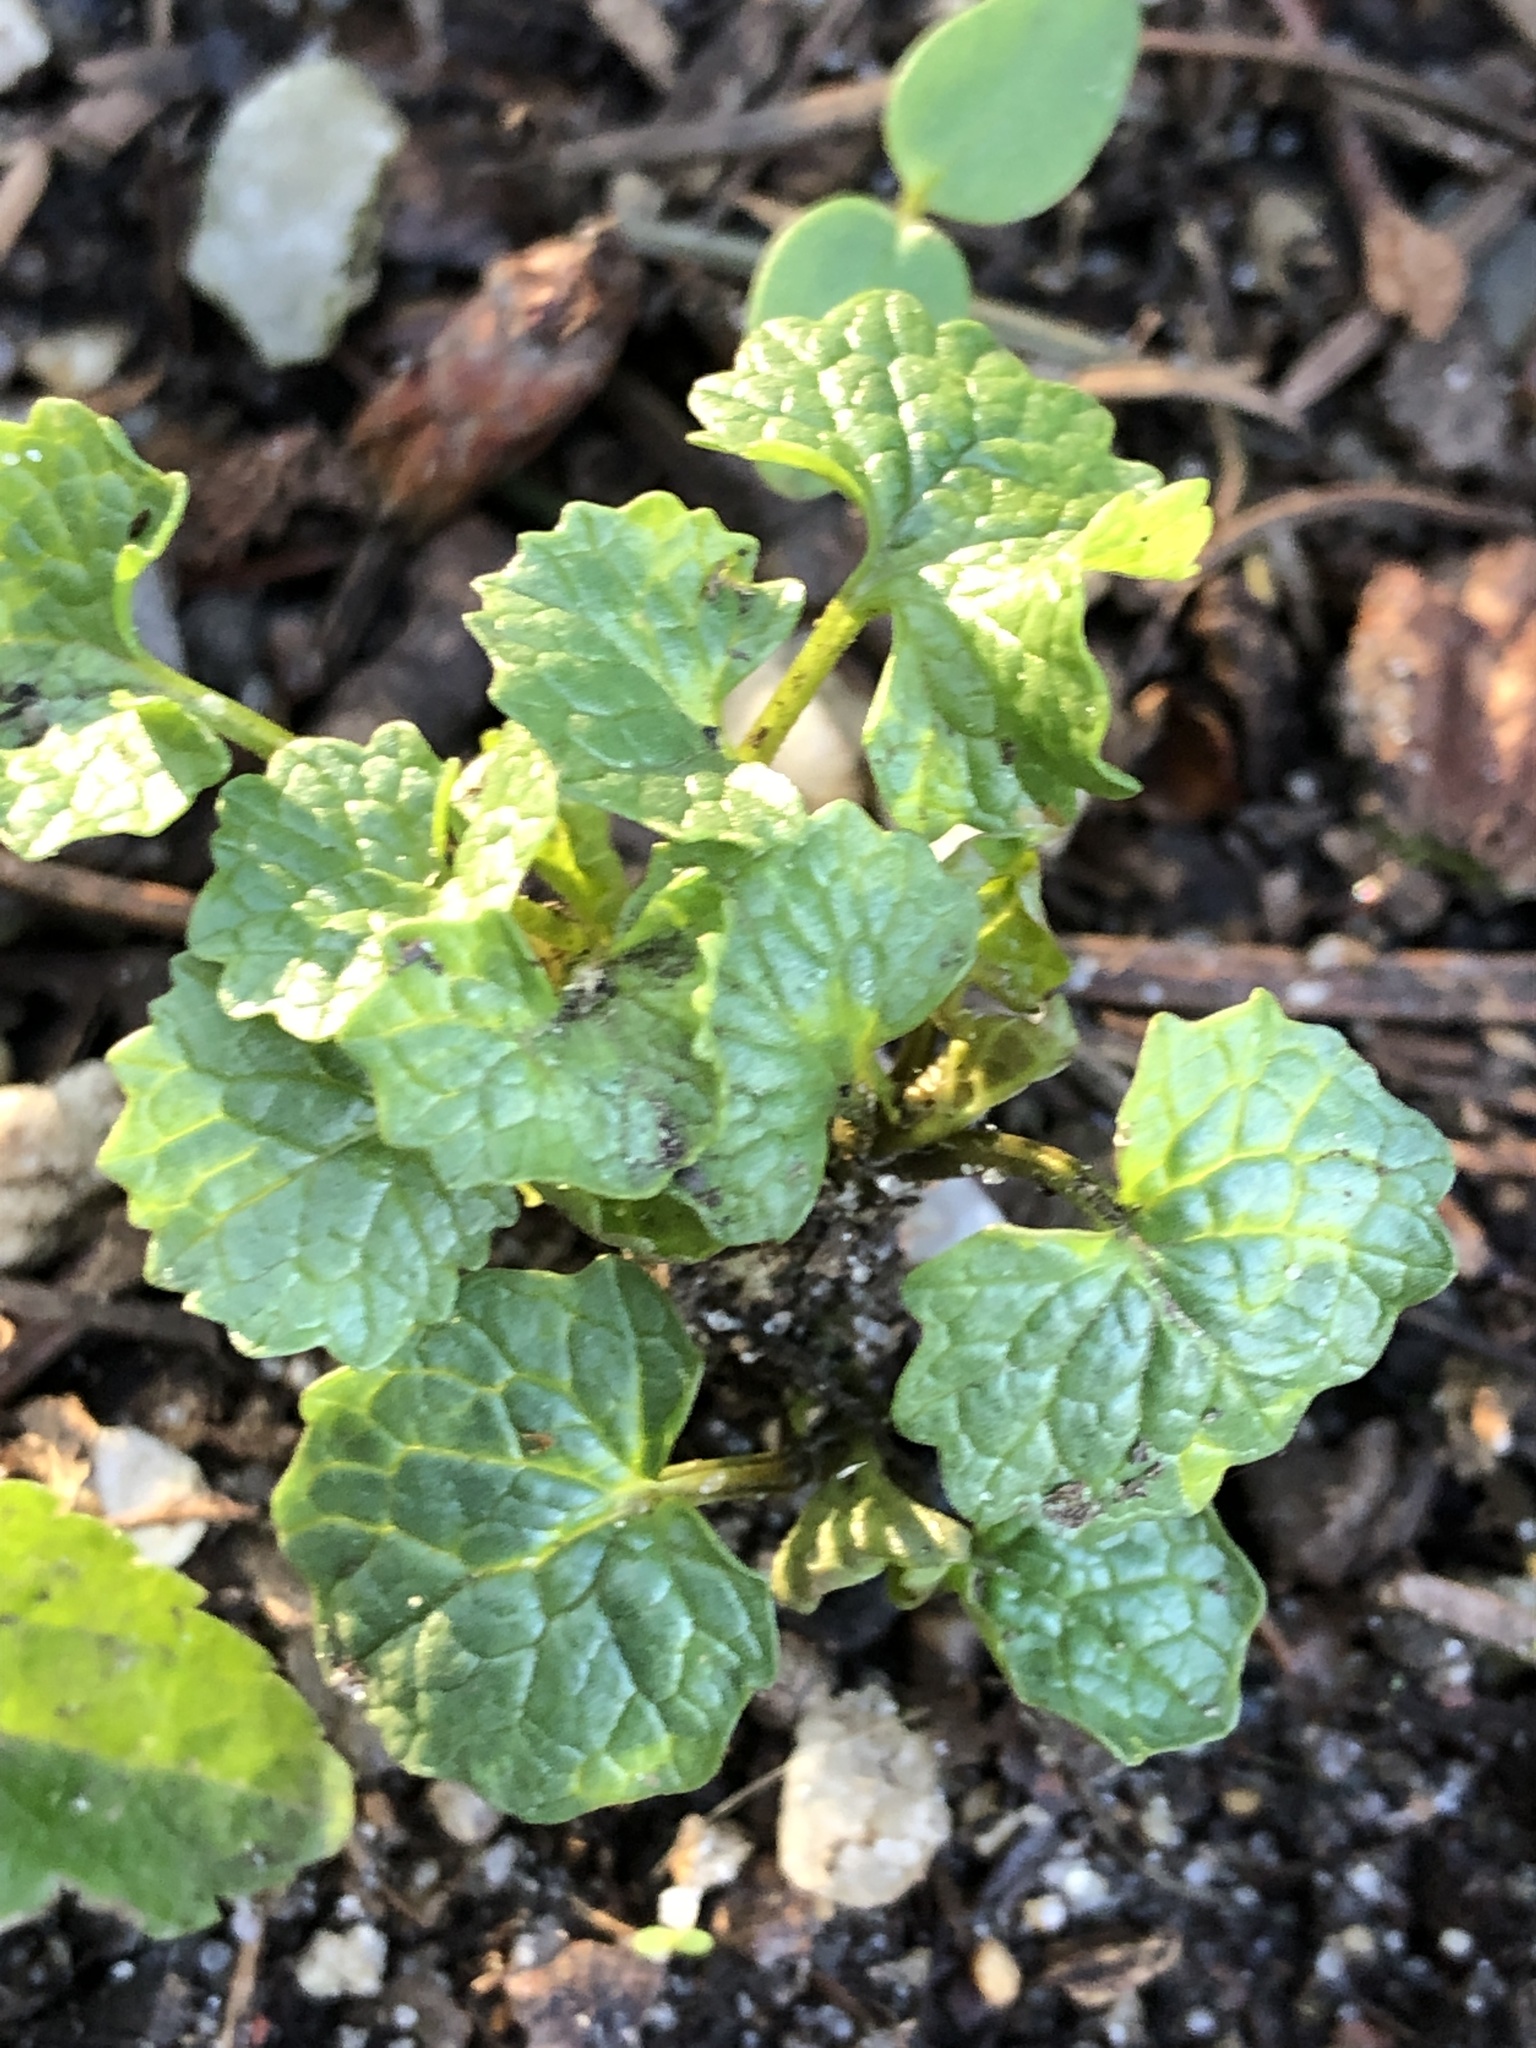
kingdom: Plantae
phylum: Tracheophyta
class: Magnoliopsida
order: Brassicales
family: Brassicaceae
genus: Alliaria
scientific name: Alliaria petiolata
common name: Garlic mustard
